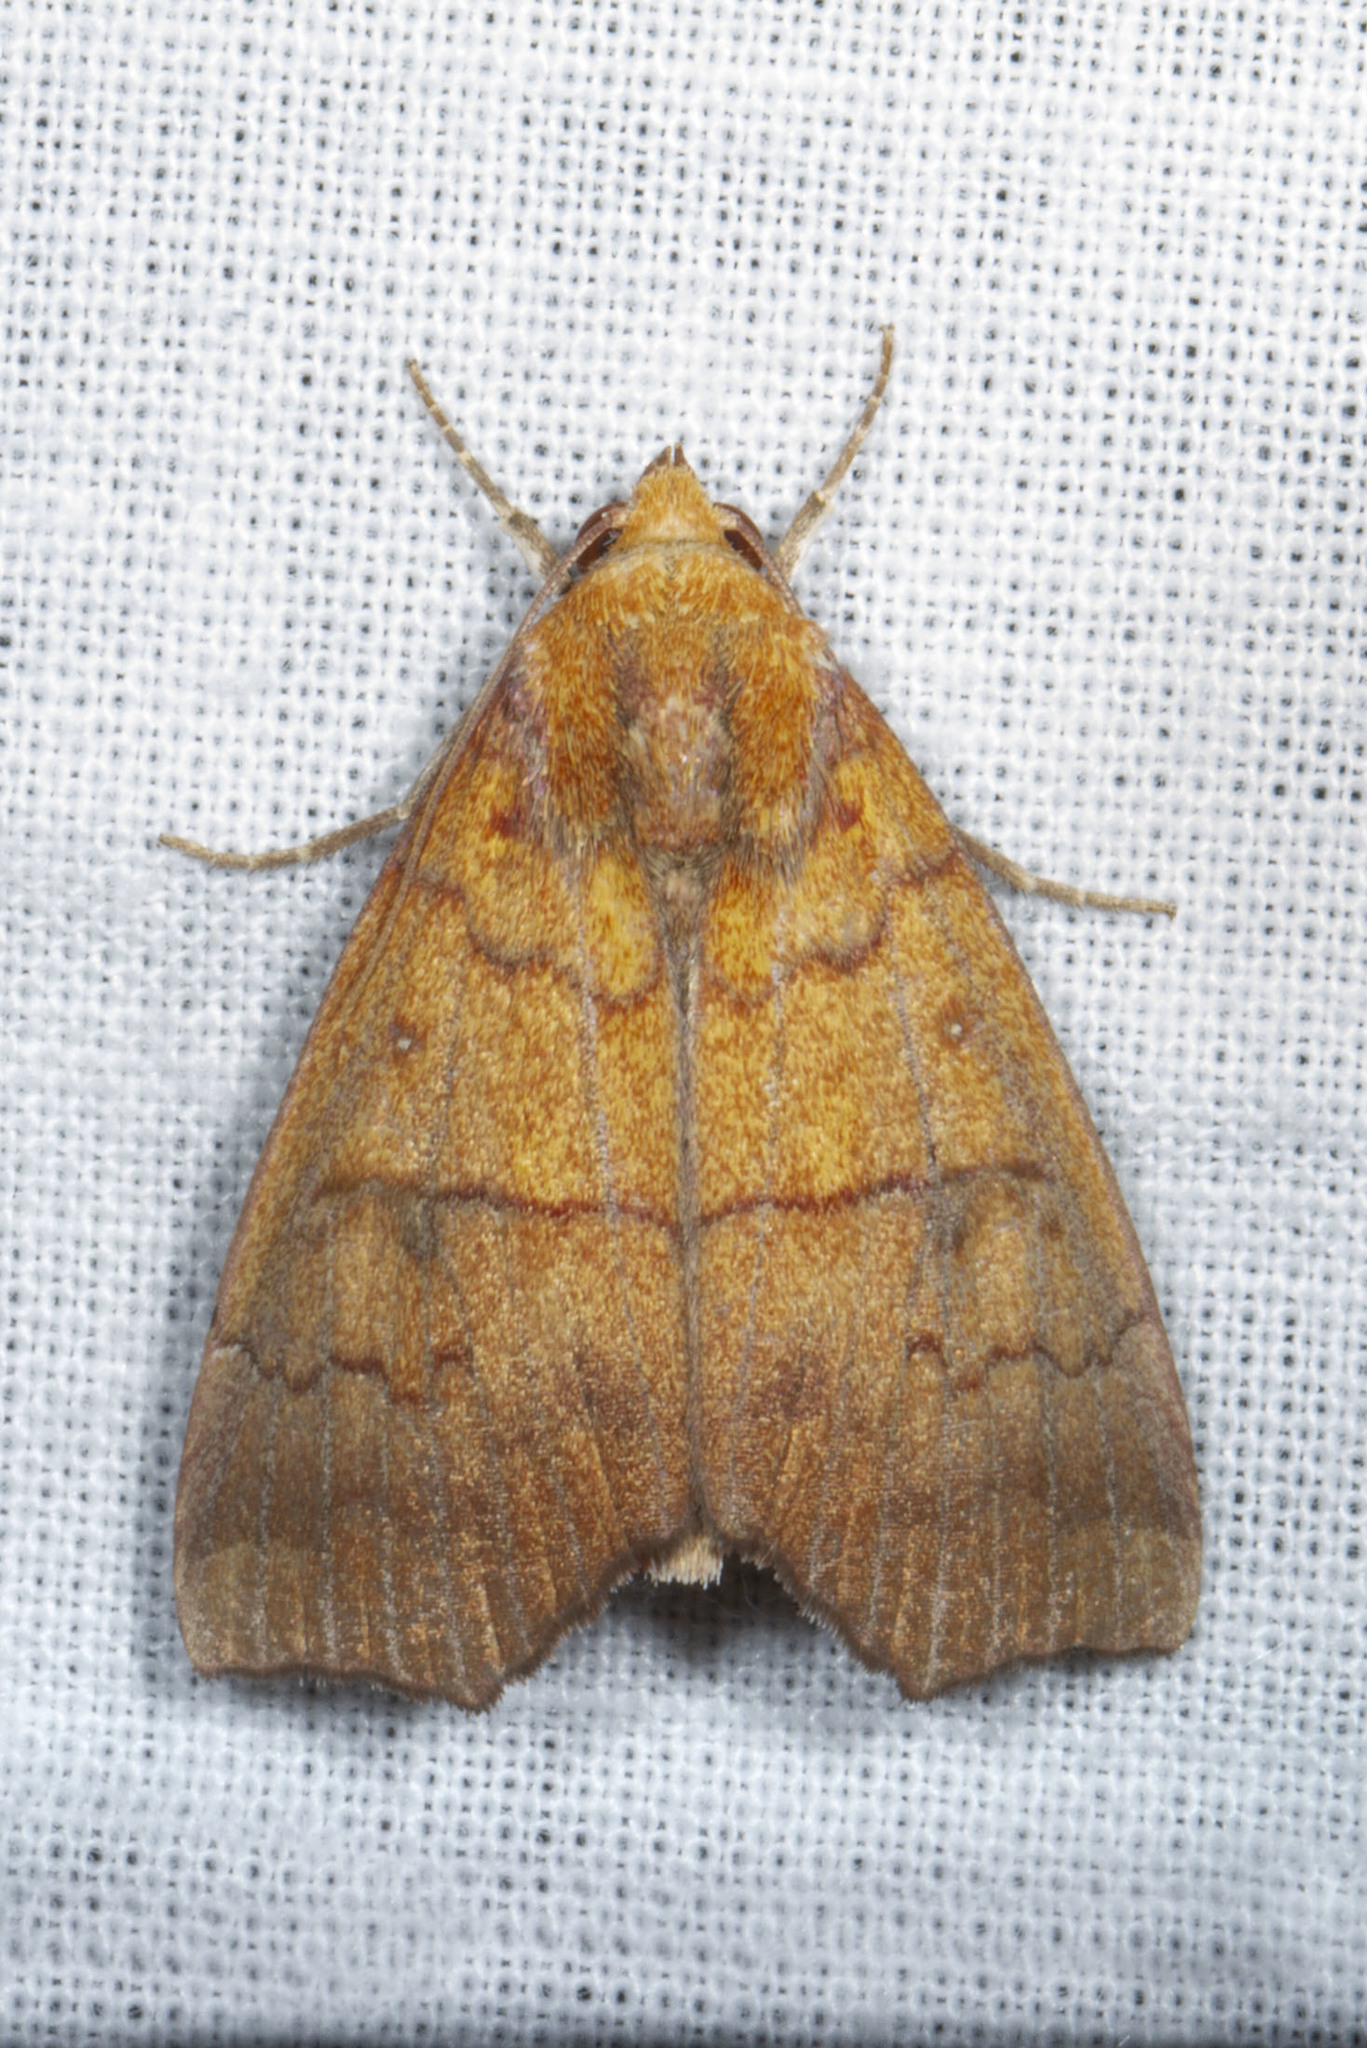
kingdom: Animalia
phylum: Arthropoda
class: Insecta
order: Lepidoptera
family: Erebidae
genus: Rusicada
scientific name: Rusicada privata
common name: Hibiscus leaf caterpillar moth
